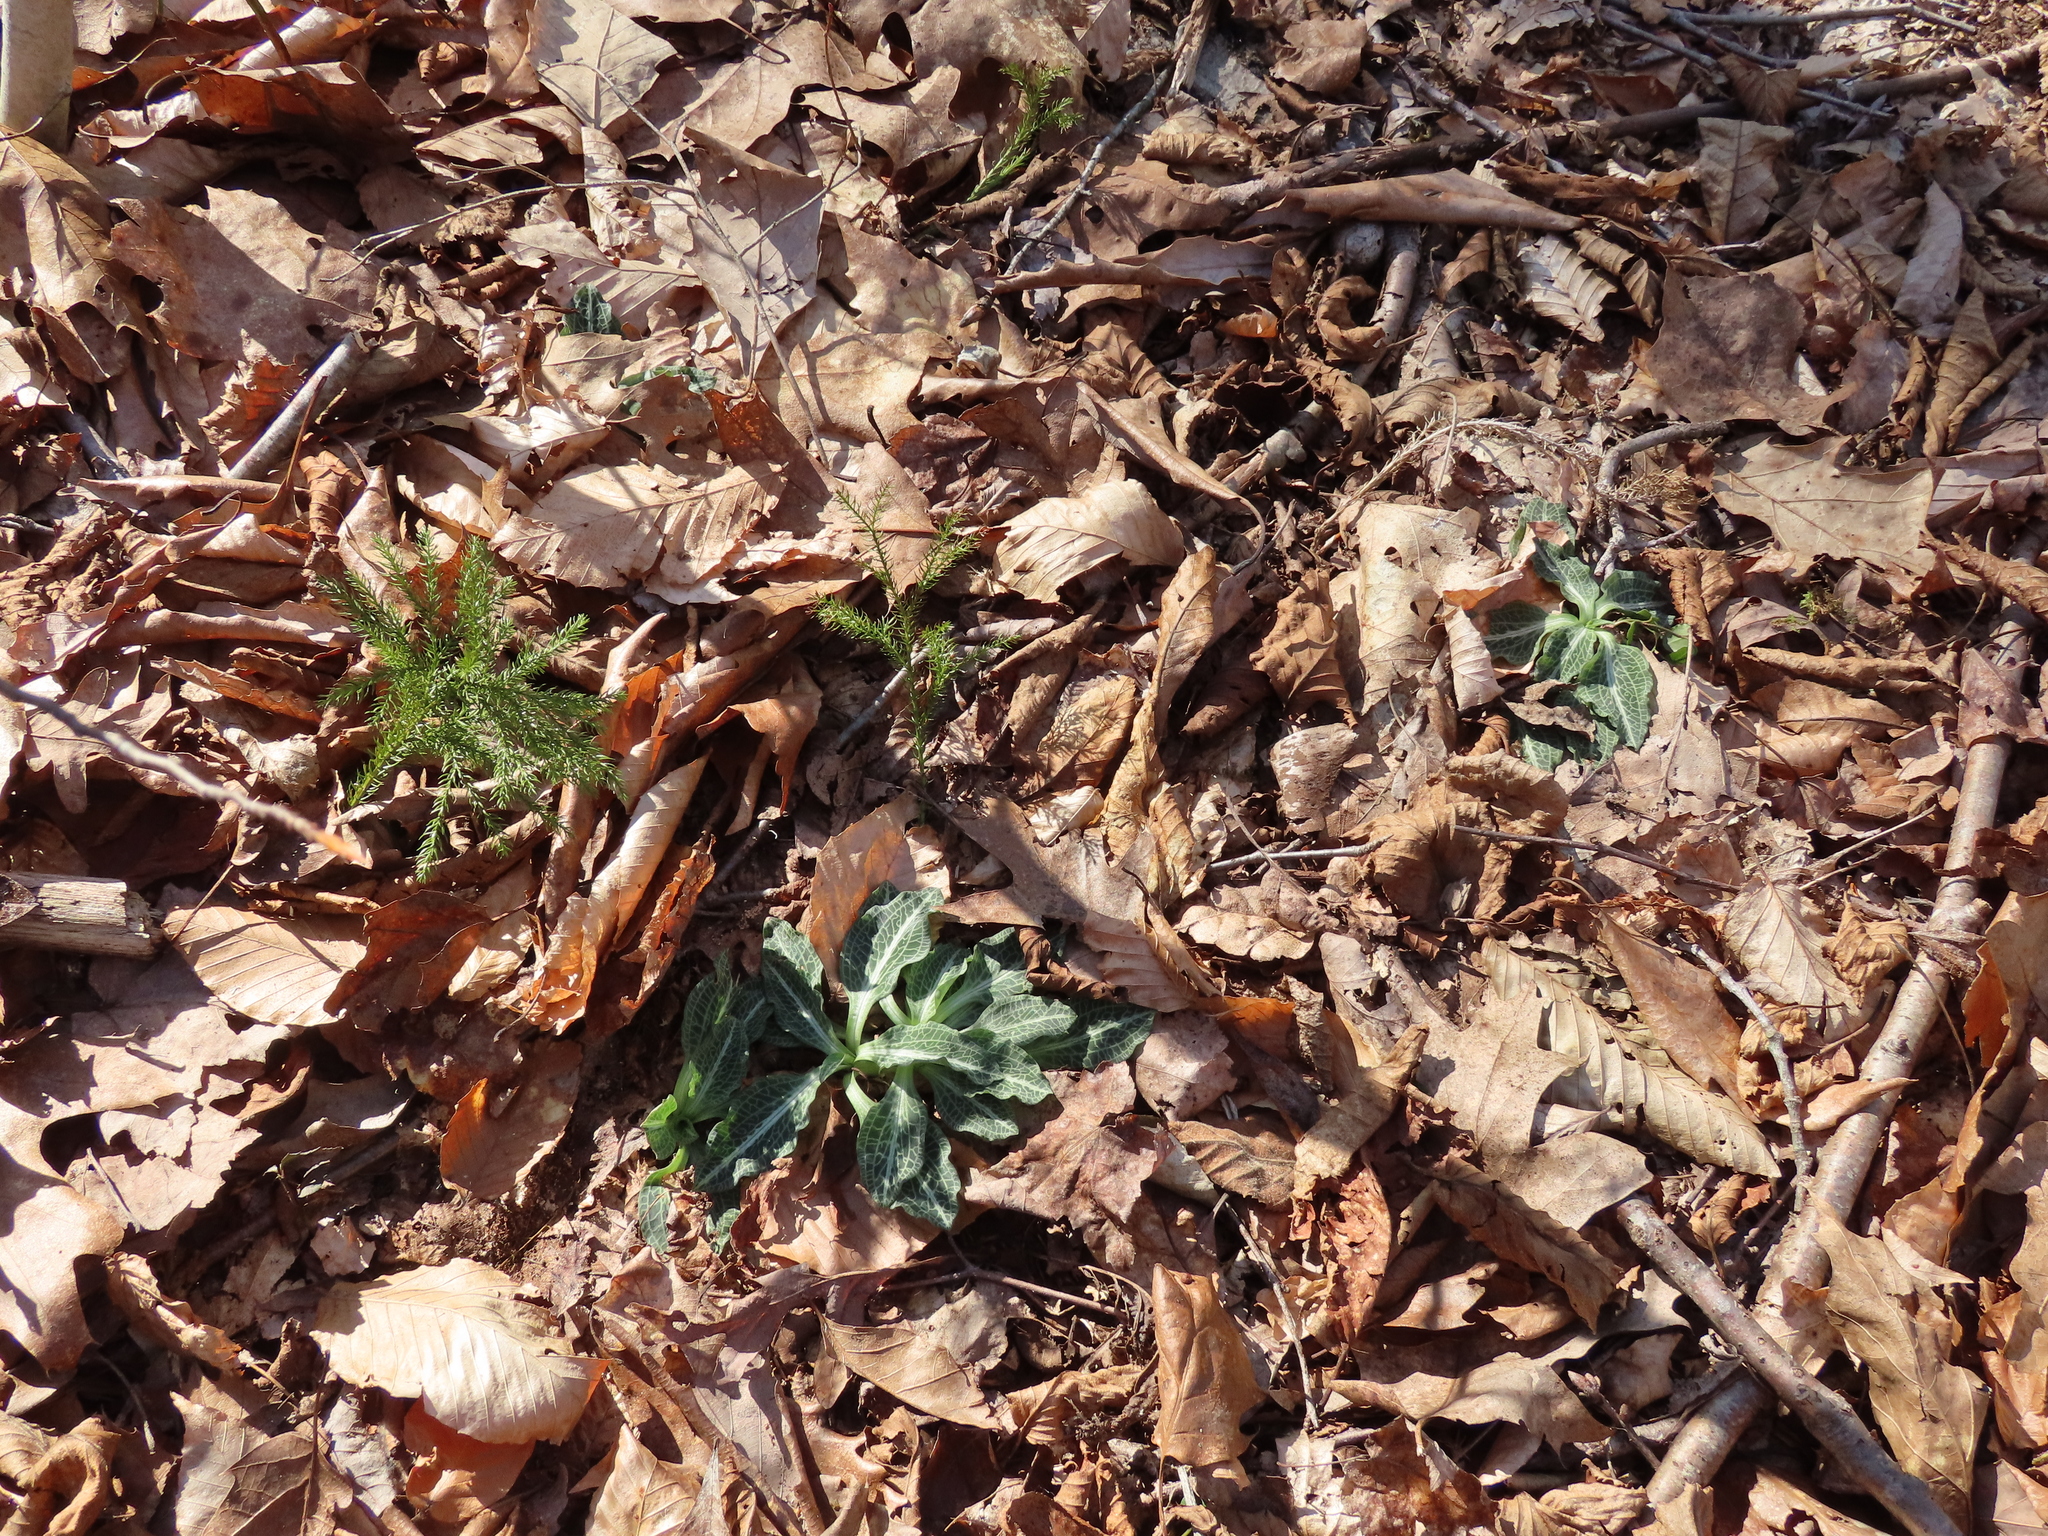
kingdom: Plantae
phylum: Tracheophyta
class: Liliopsida
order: Asparagales
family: Orchidaceae
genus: Goodyera
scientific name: Goodyera pubescens
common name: Downy rattlesnake-plantain
